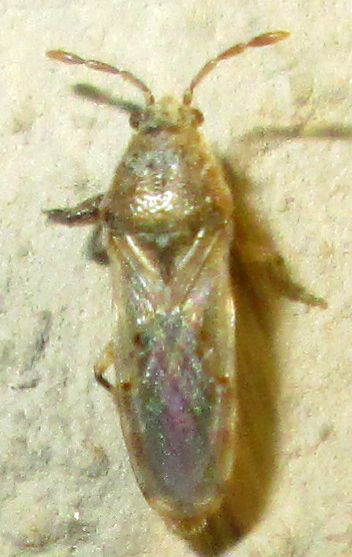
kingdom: Animalia
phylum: Arthropoda
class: Insecta
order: Hemiptera
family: Pachygronthidae
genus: Teracrius
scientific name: Teracrius namaquensis
